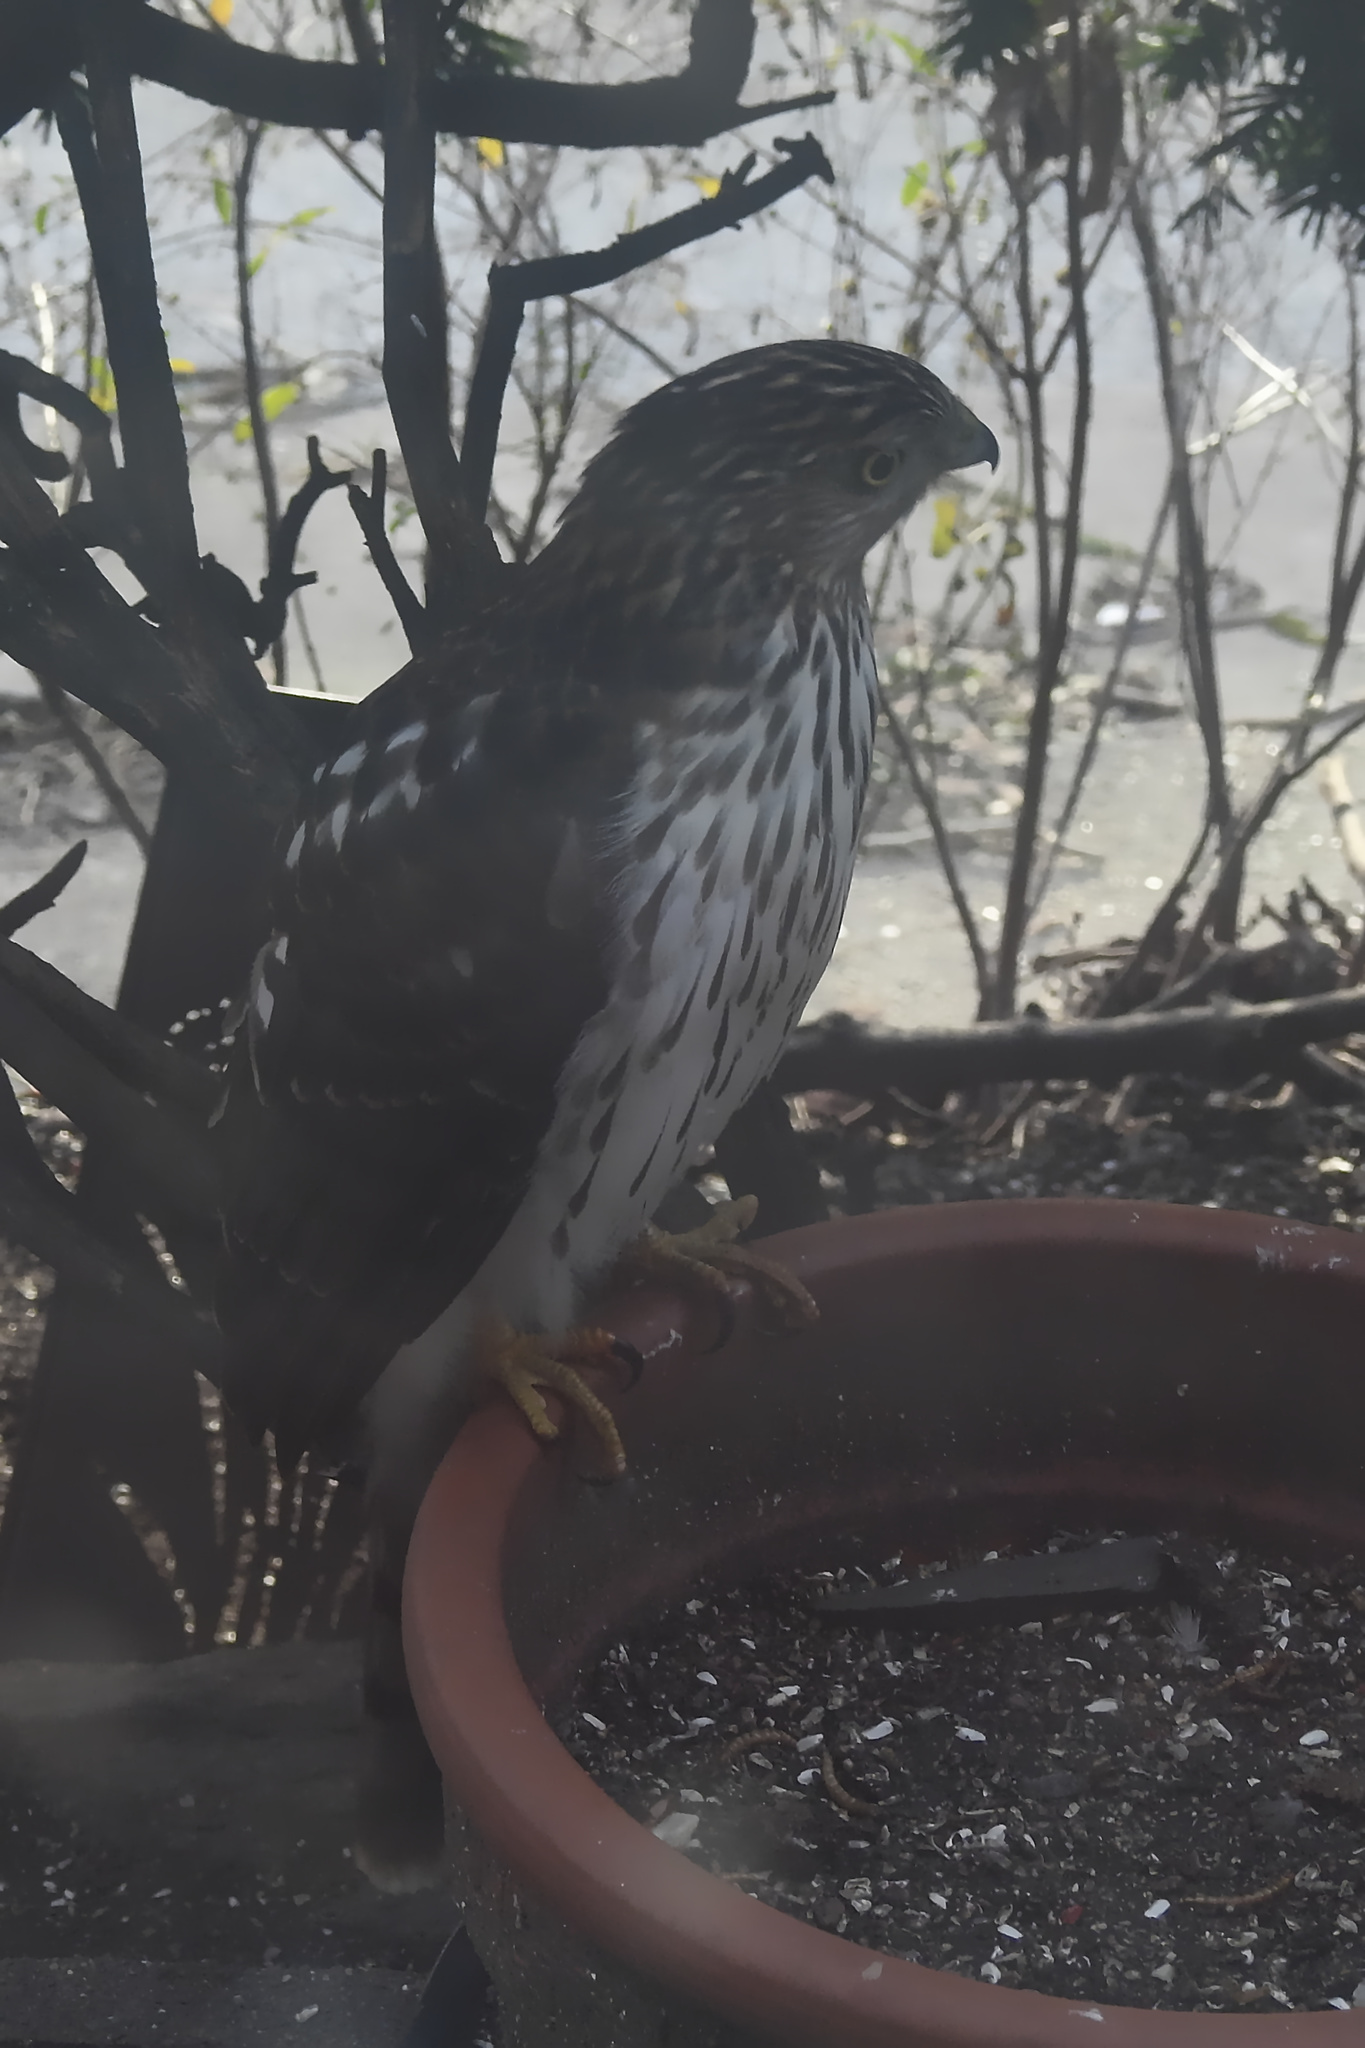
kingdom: Animalia
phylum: Chordata
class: Aves
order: Accipitriformes
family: Accipitridae
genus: Accipiter
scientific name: Accipiter cooperii
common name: Cooper's hawk
